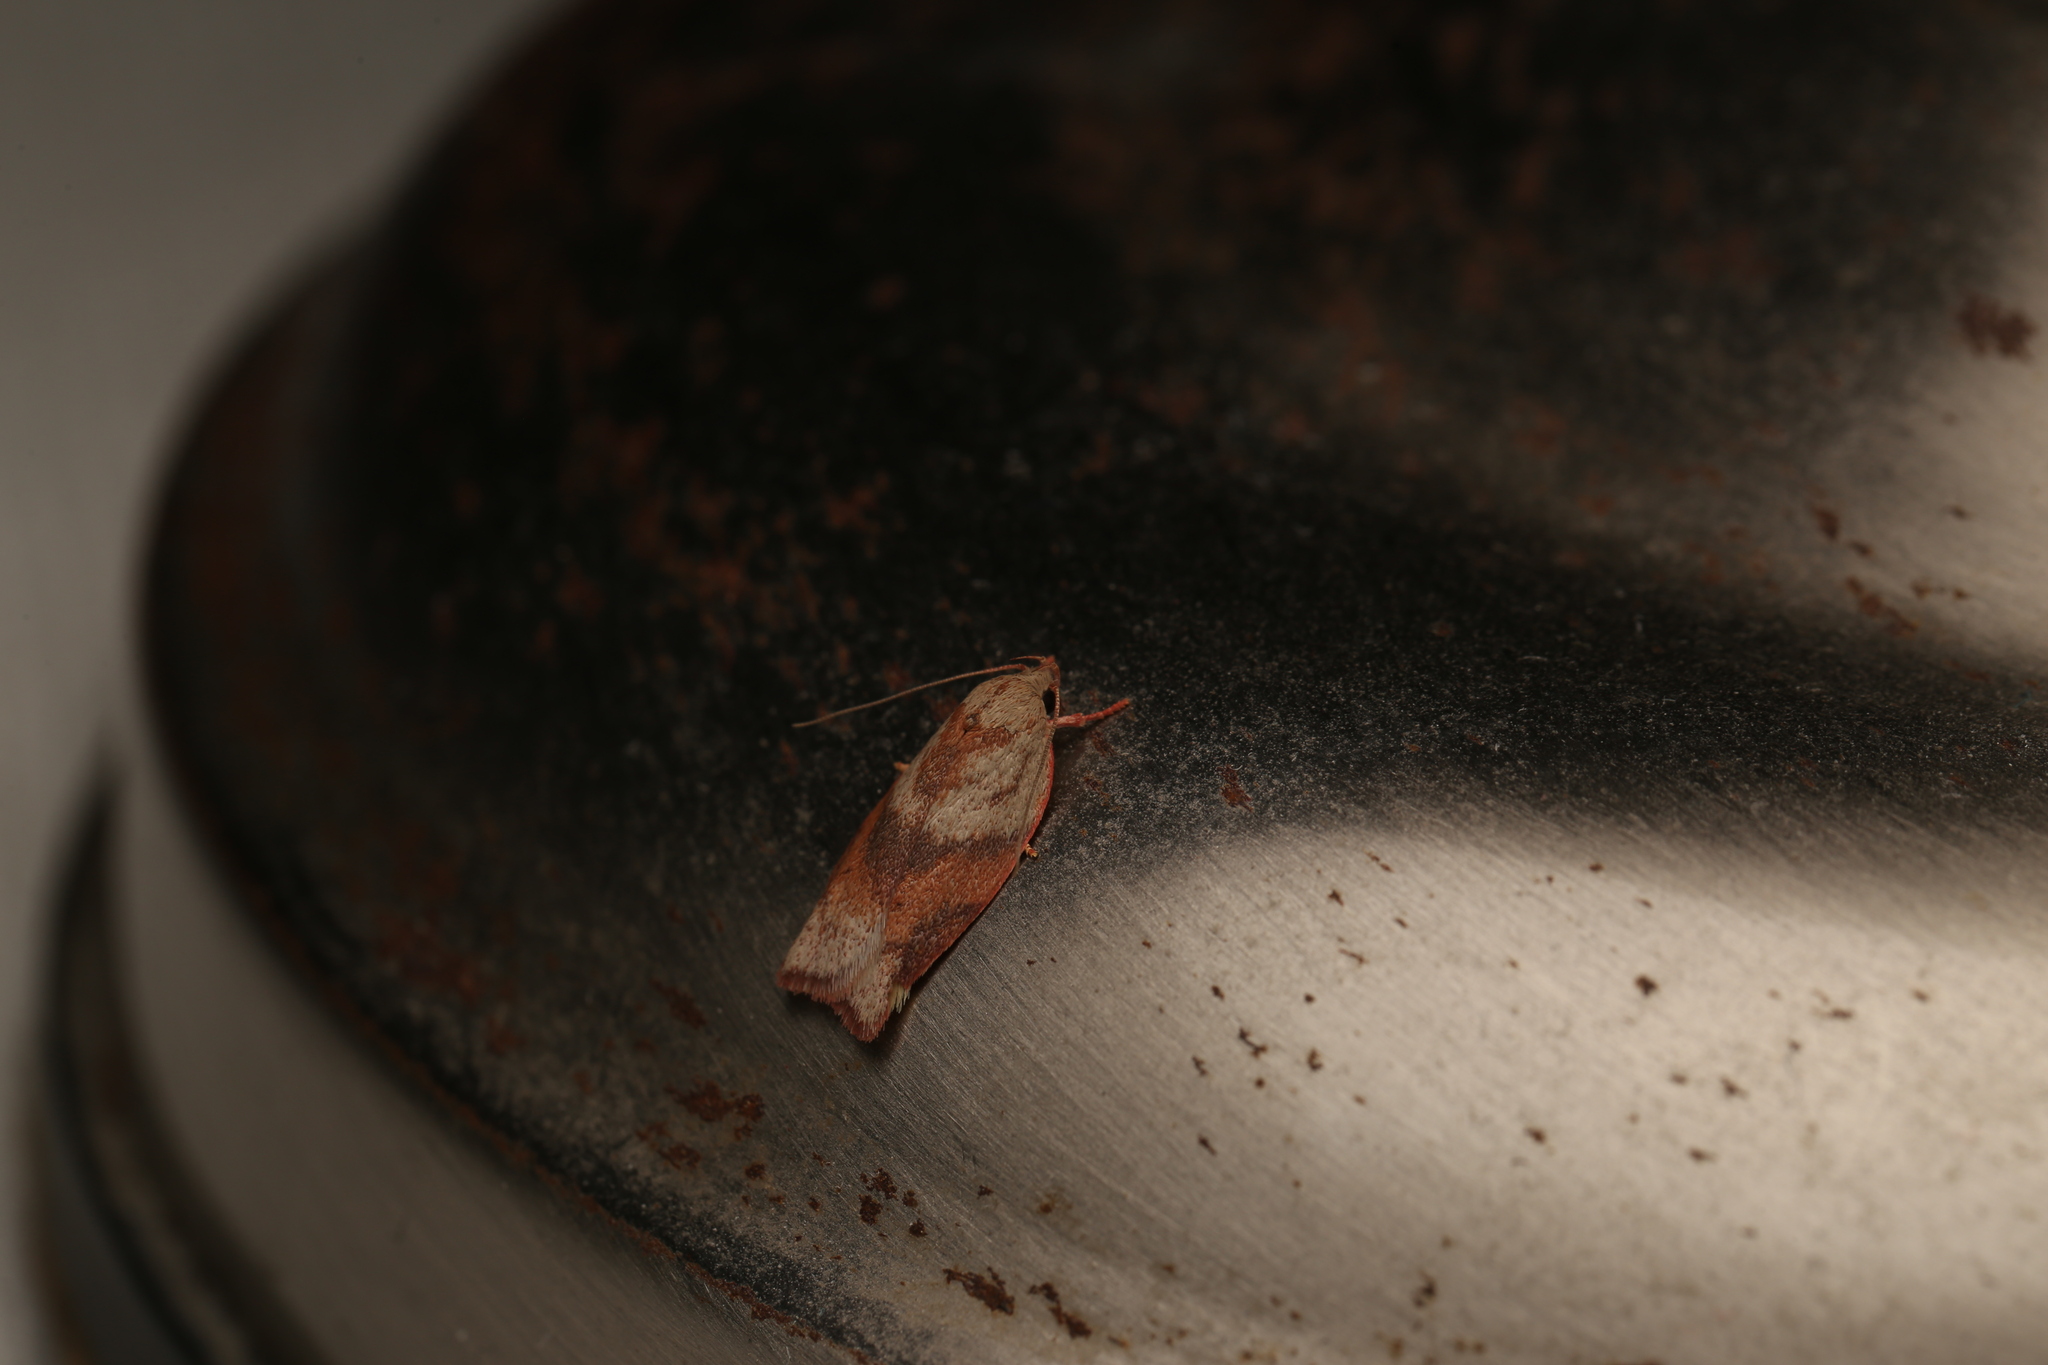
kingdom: Animalia
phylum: Arthropoda
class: Insecta
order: Lepidoptera
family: Oecophoridae
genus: Euchaetis
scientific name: Euchaetis crypsichroa
